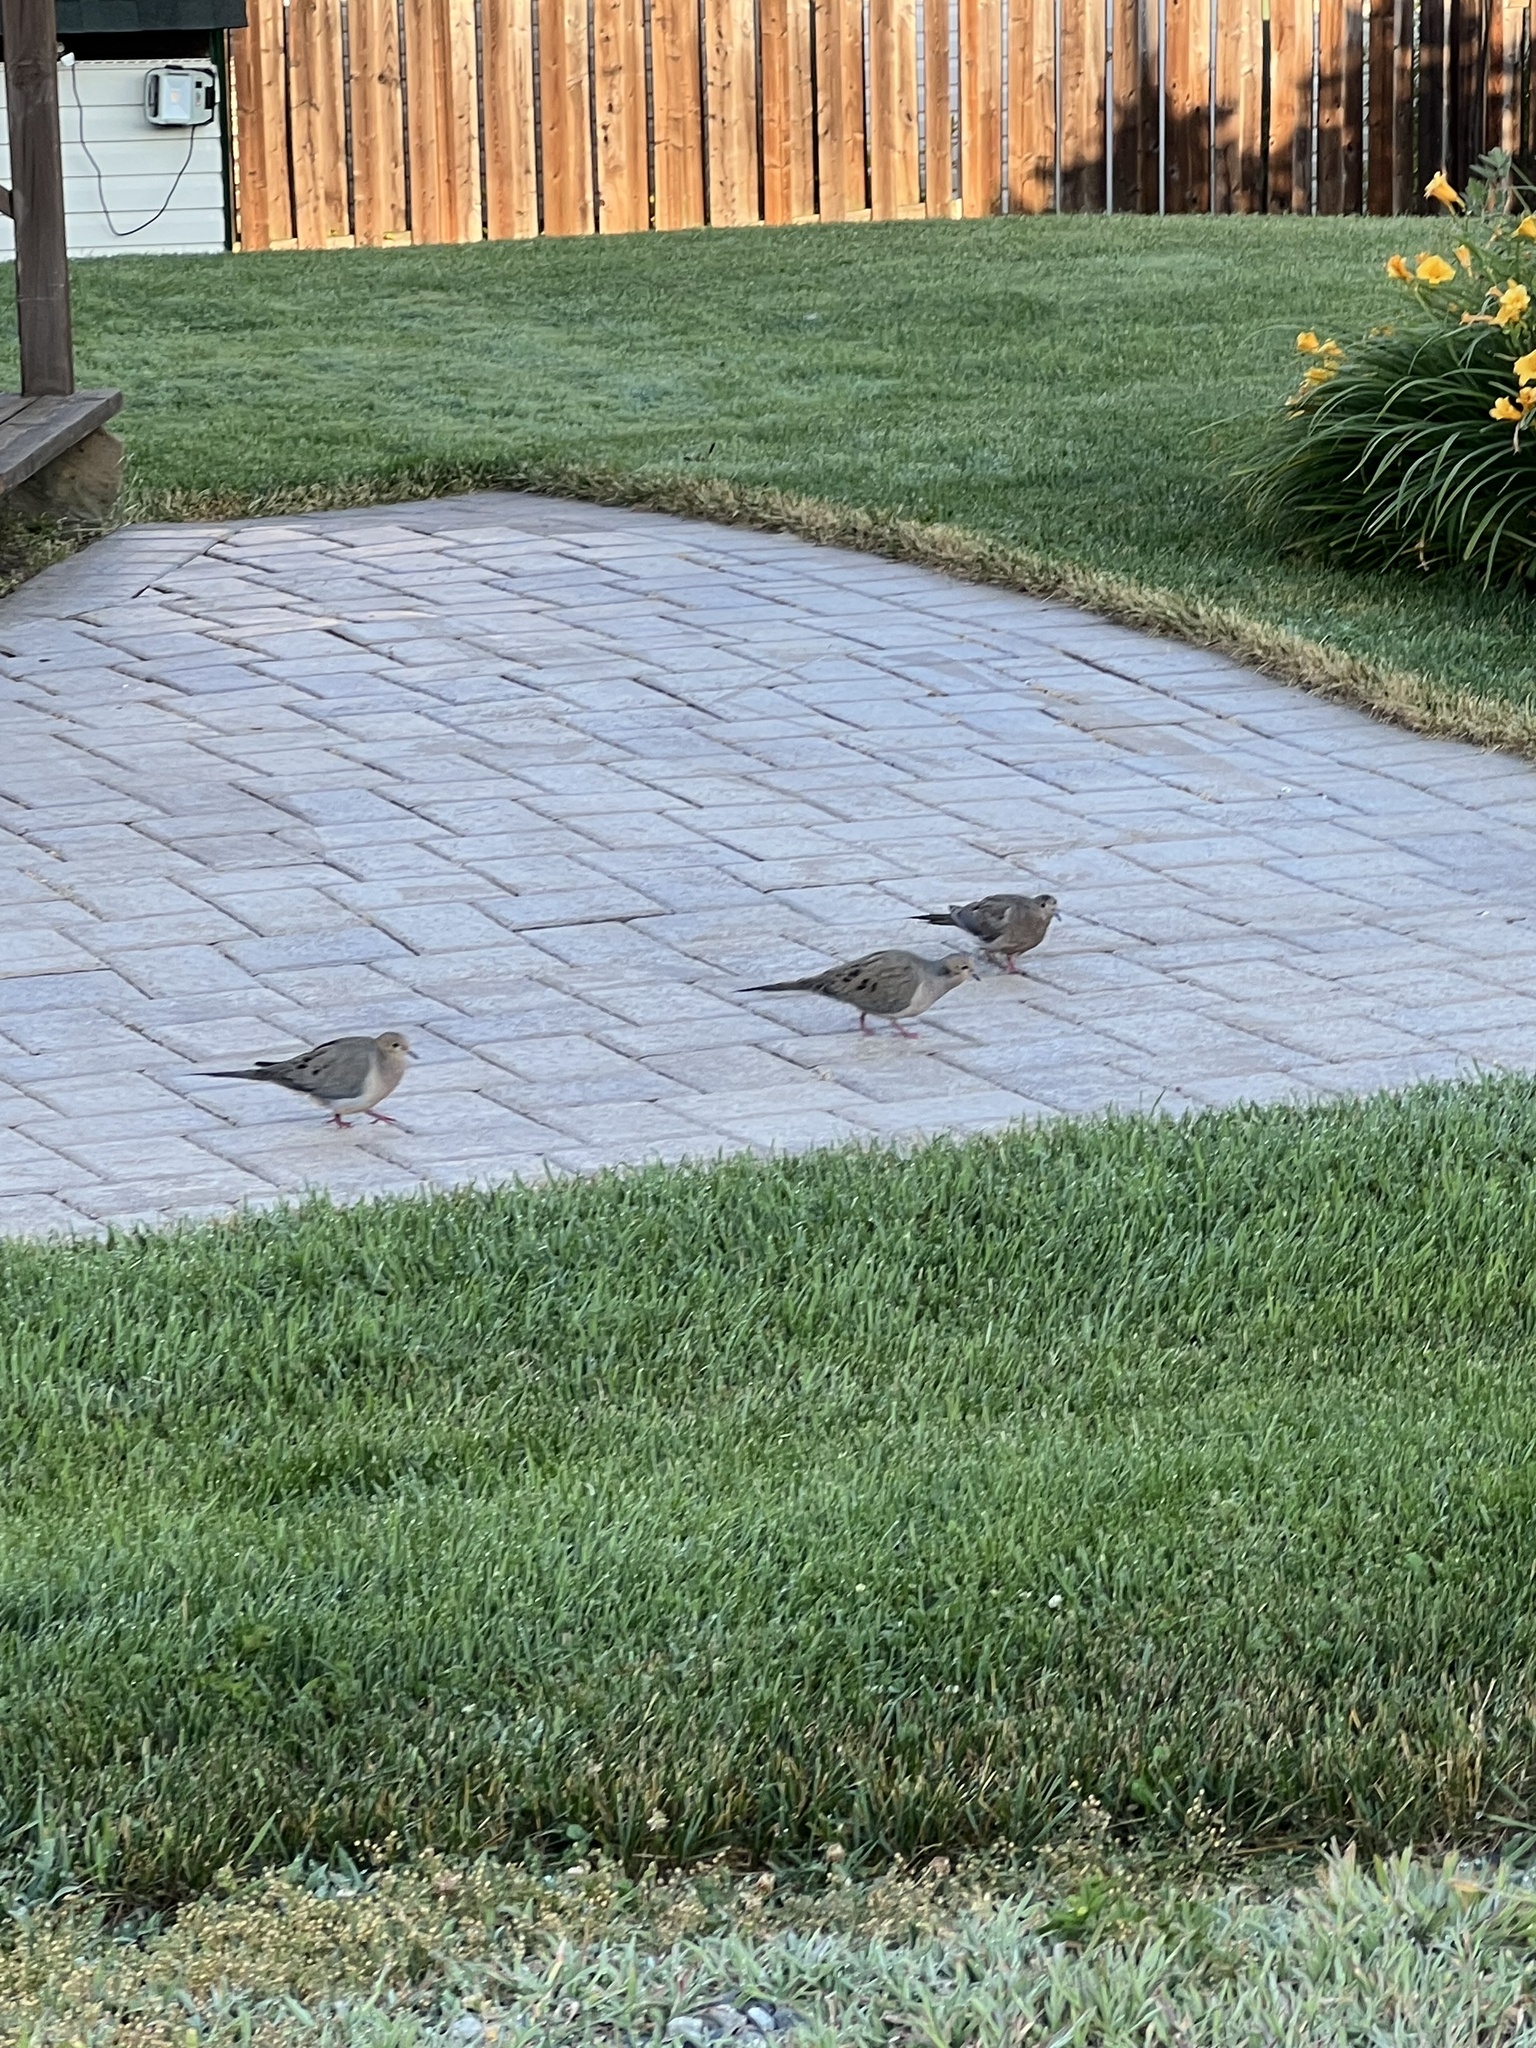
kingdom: Animalia
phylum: Chordata
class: Aves
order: Columbiformes
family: Columbidae
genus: Zenaida
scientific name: Zenaida macroura
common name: Mourning dove
